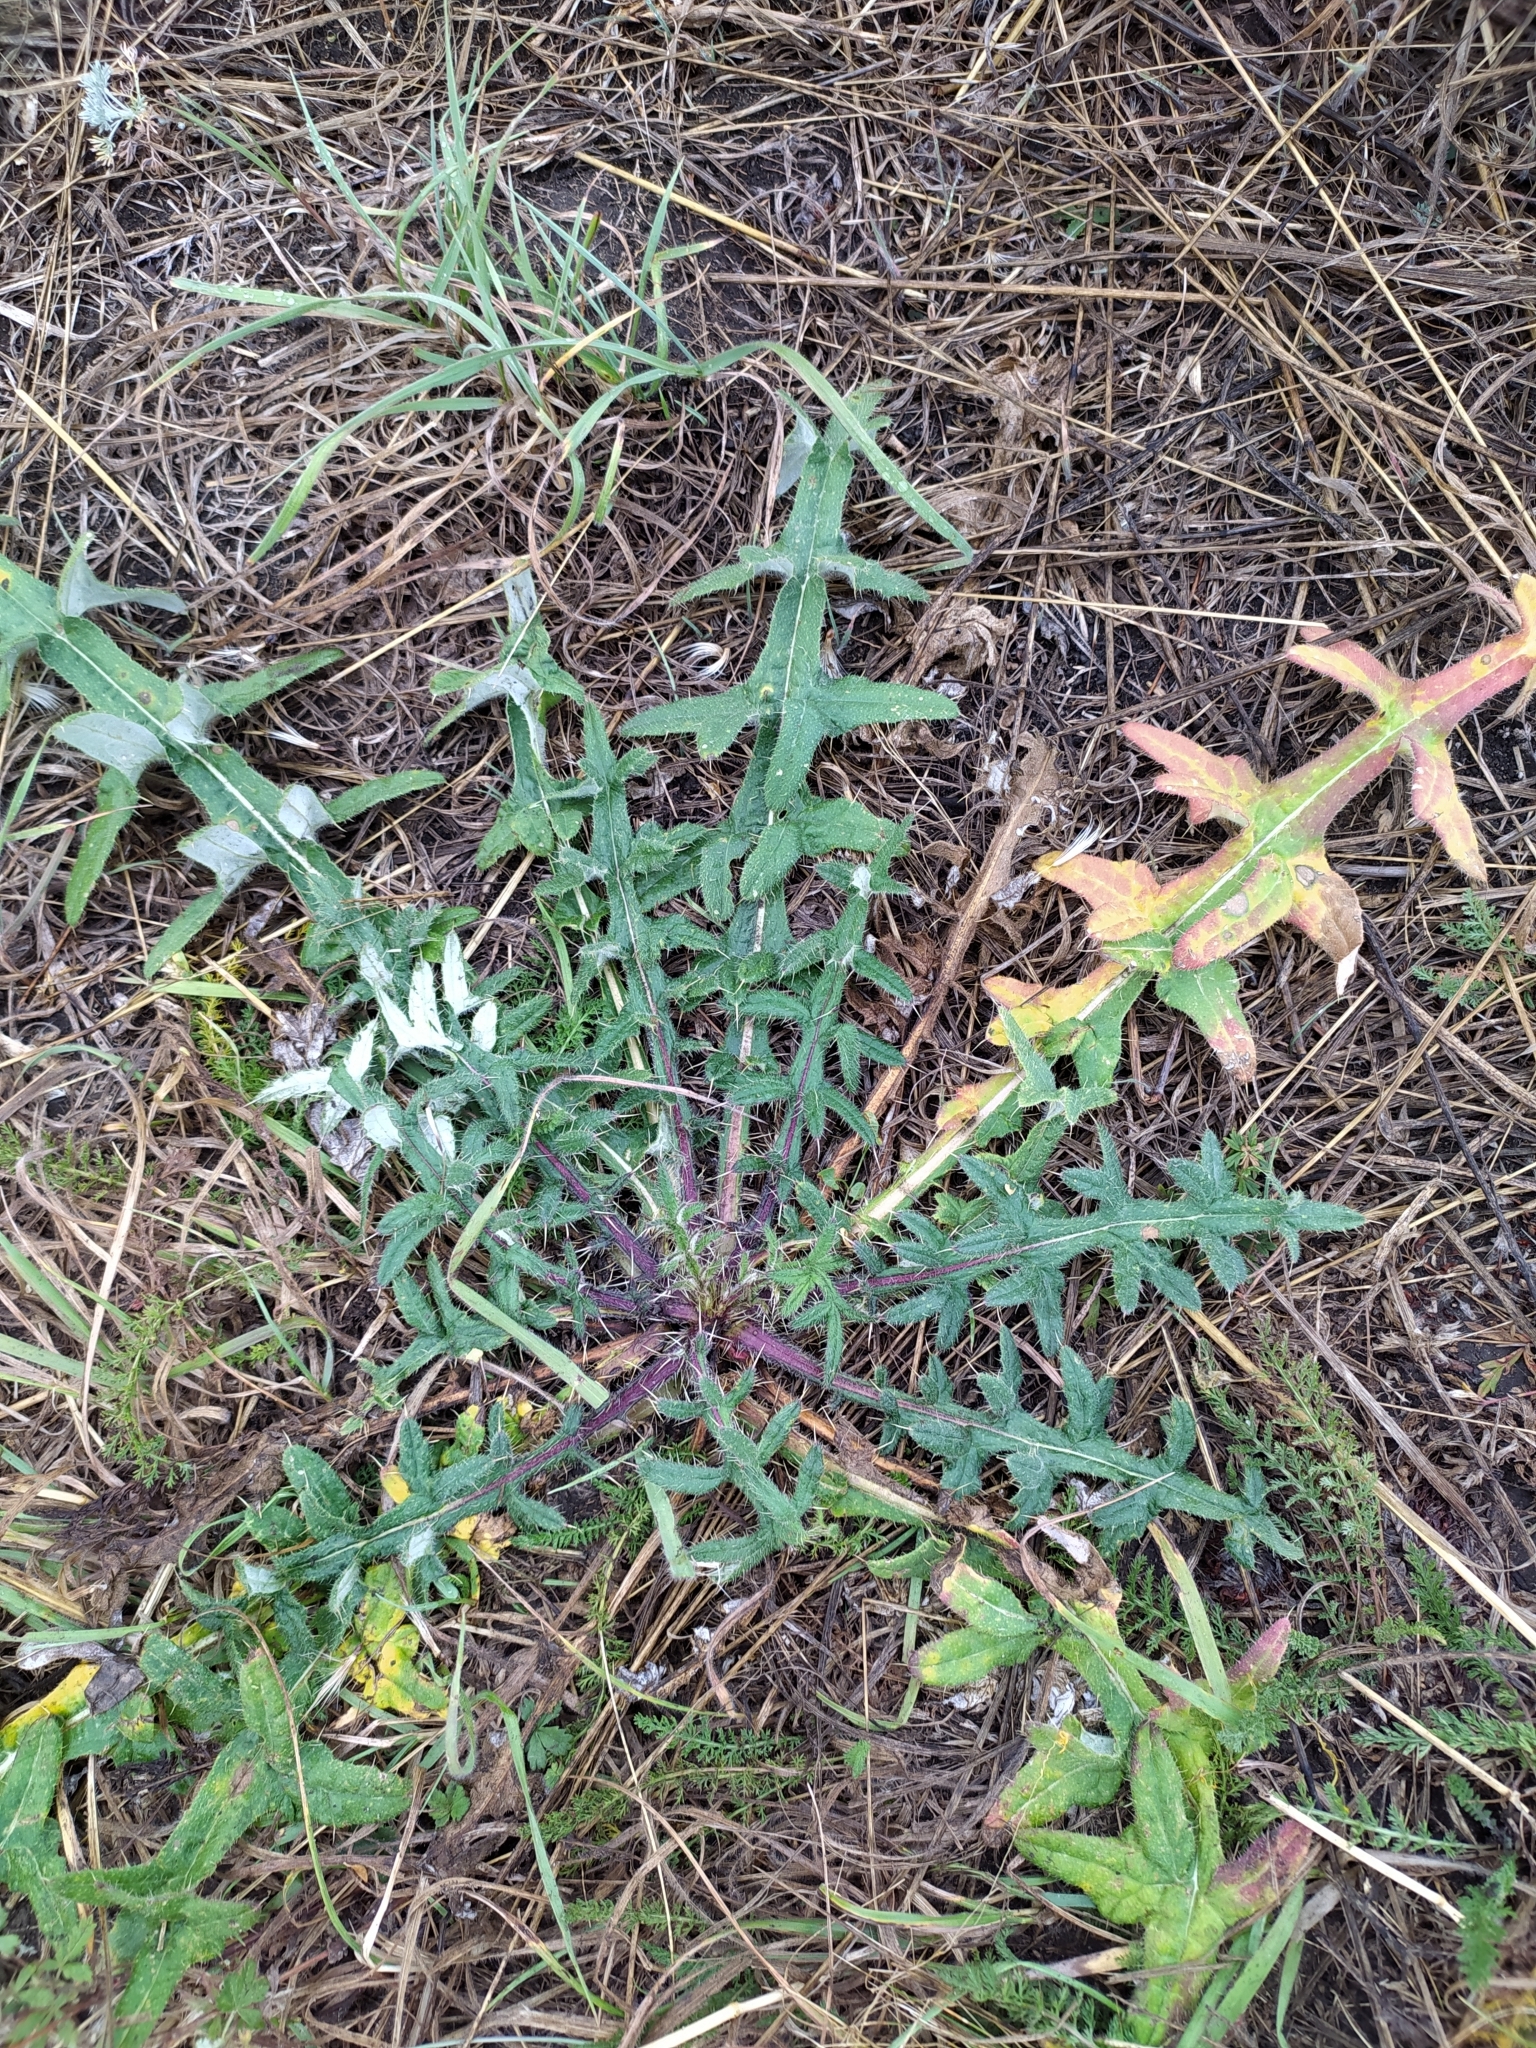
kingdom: Plantae
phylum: Tracheophyta
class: Magnoliopsida
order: Asterales
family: Asteraceae
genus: Lophiolepis
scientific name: Lophiolepis decussata
